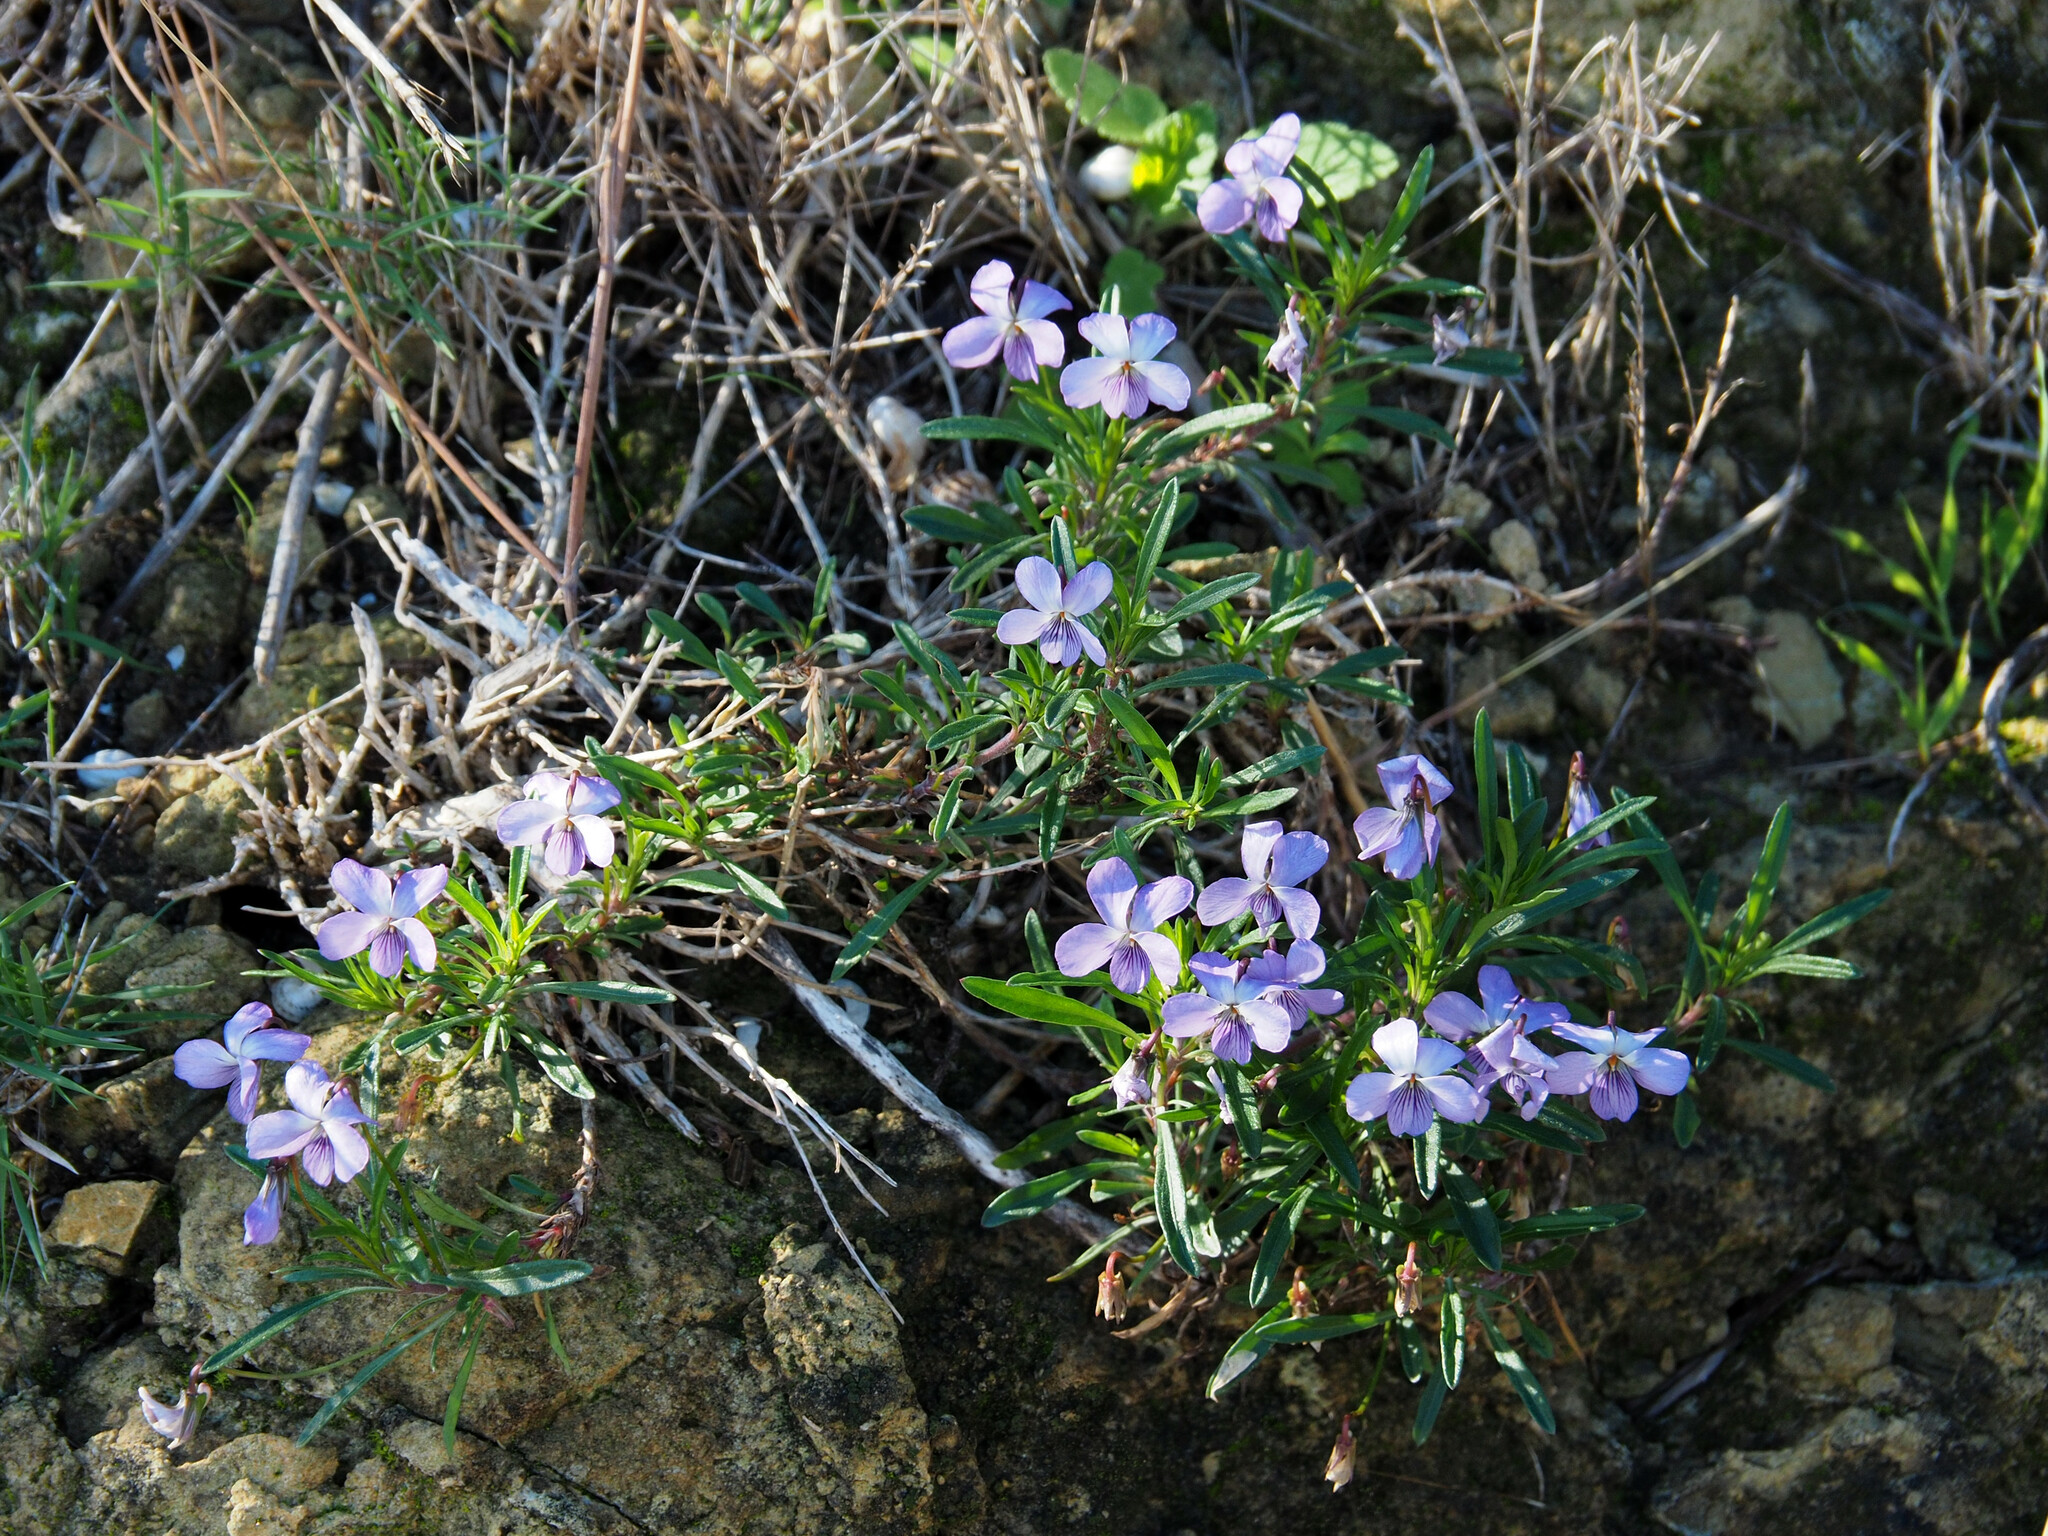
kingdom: Plantae
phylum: Tracheophyta
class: Magnoliopsida
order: Malpighiales
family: Violaceae
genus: Viola
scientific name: Viola arborescens
